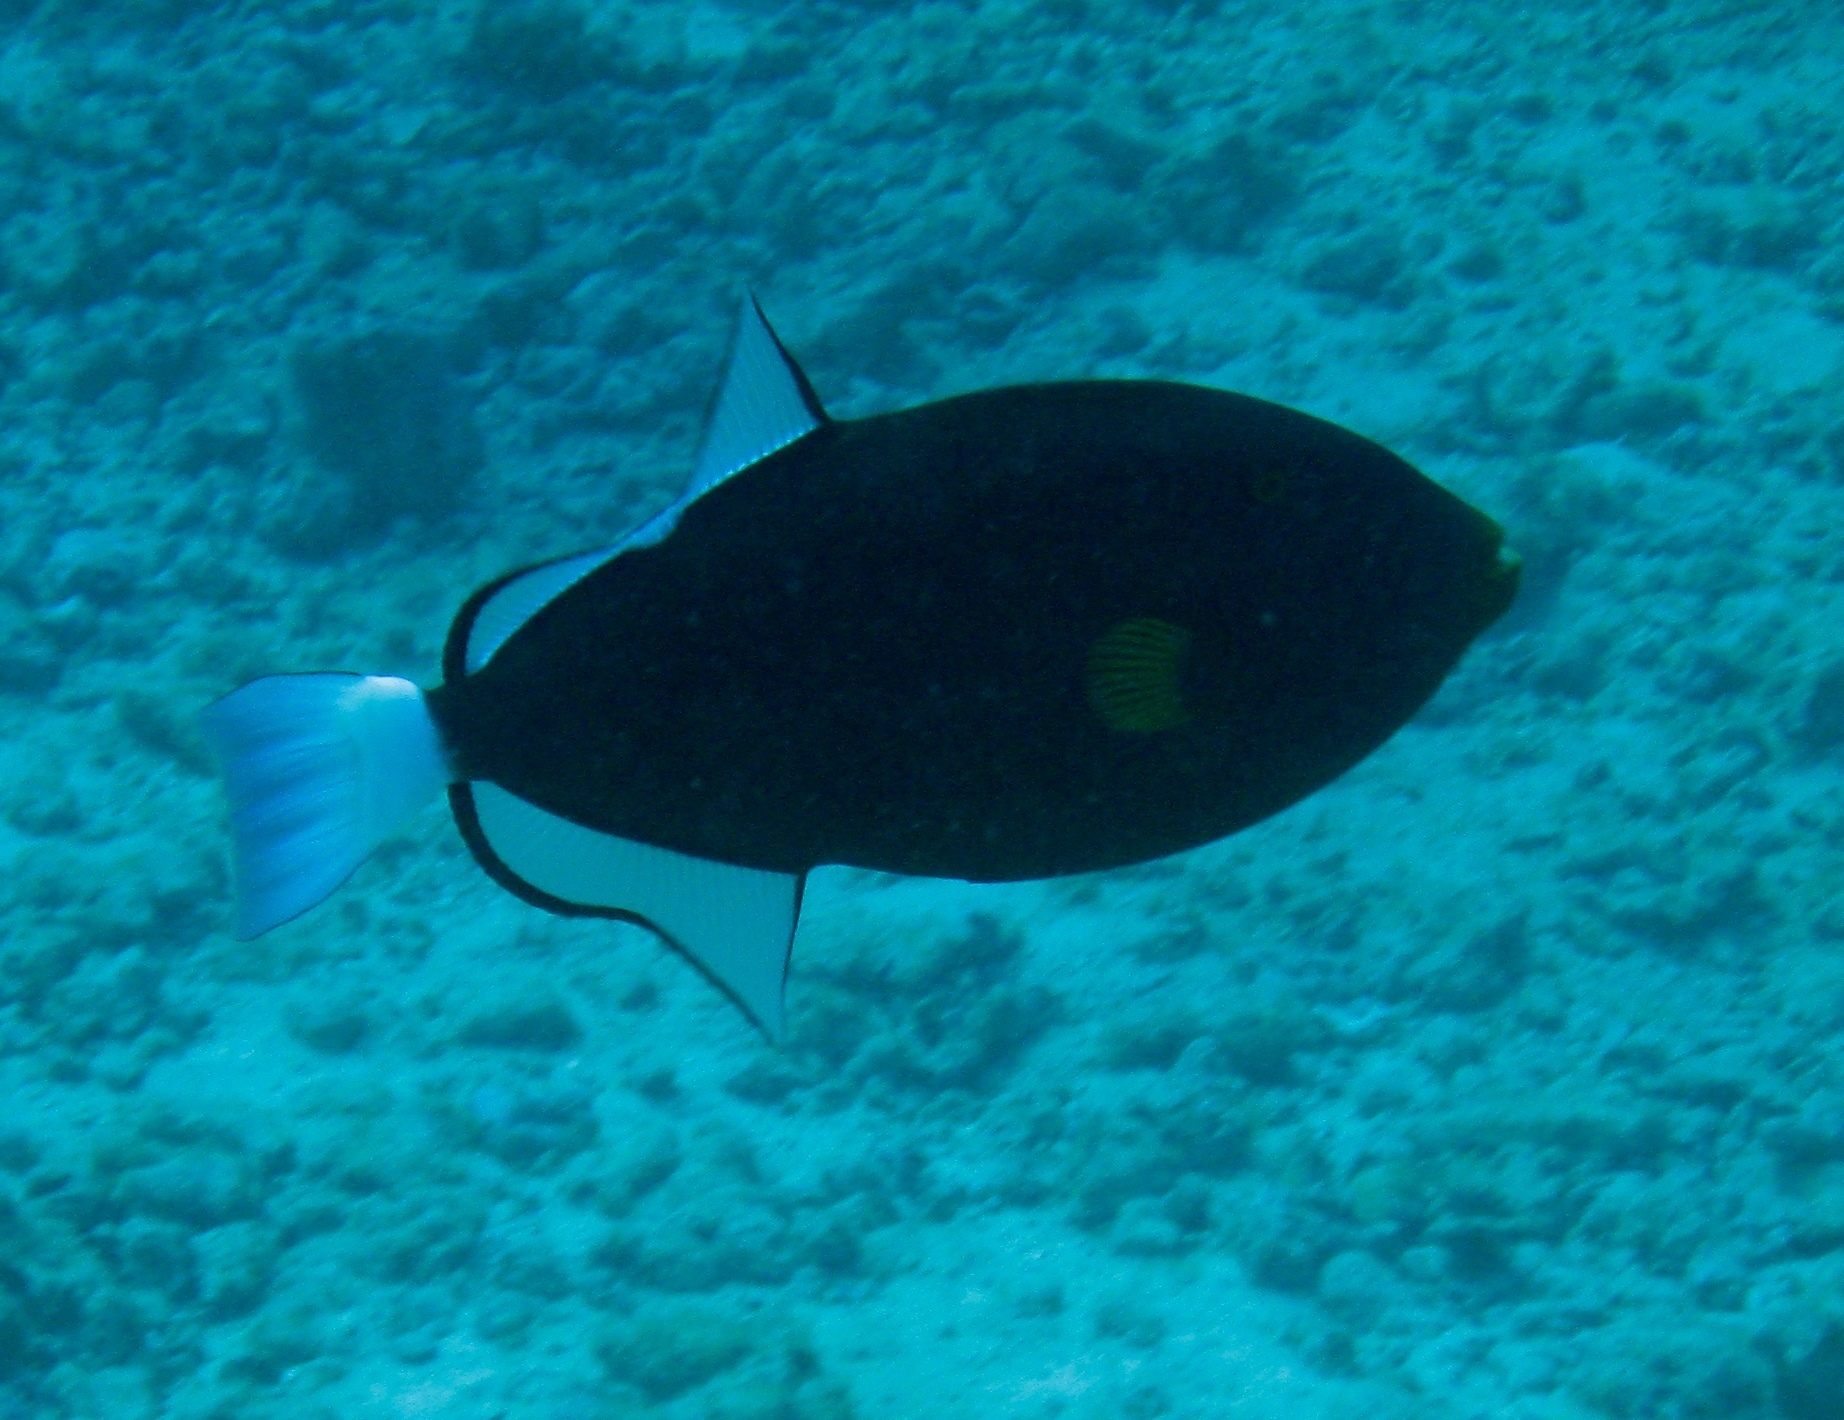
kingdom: Animalia
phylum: Chordata
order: Tetraodontiformes
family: Balistidae
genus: Melichthys
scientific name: Melichthys vidua
